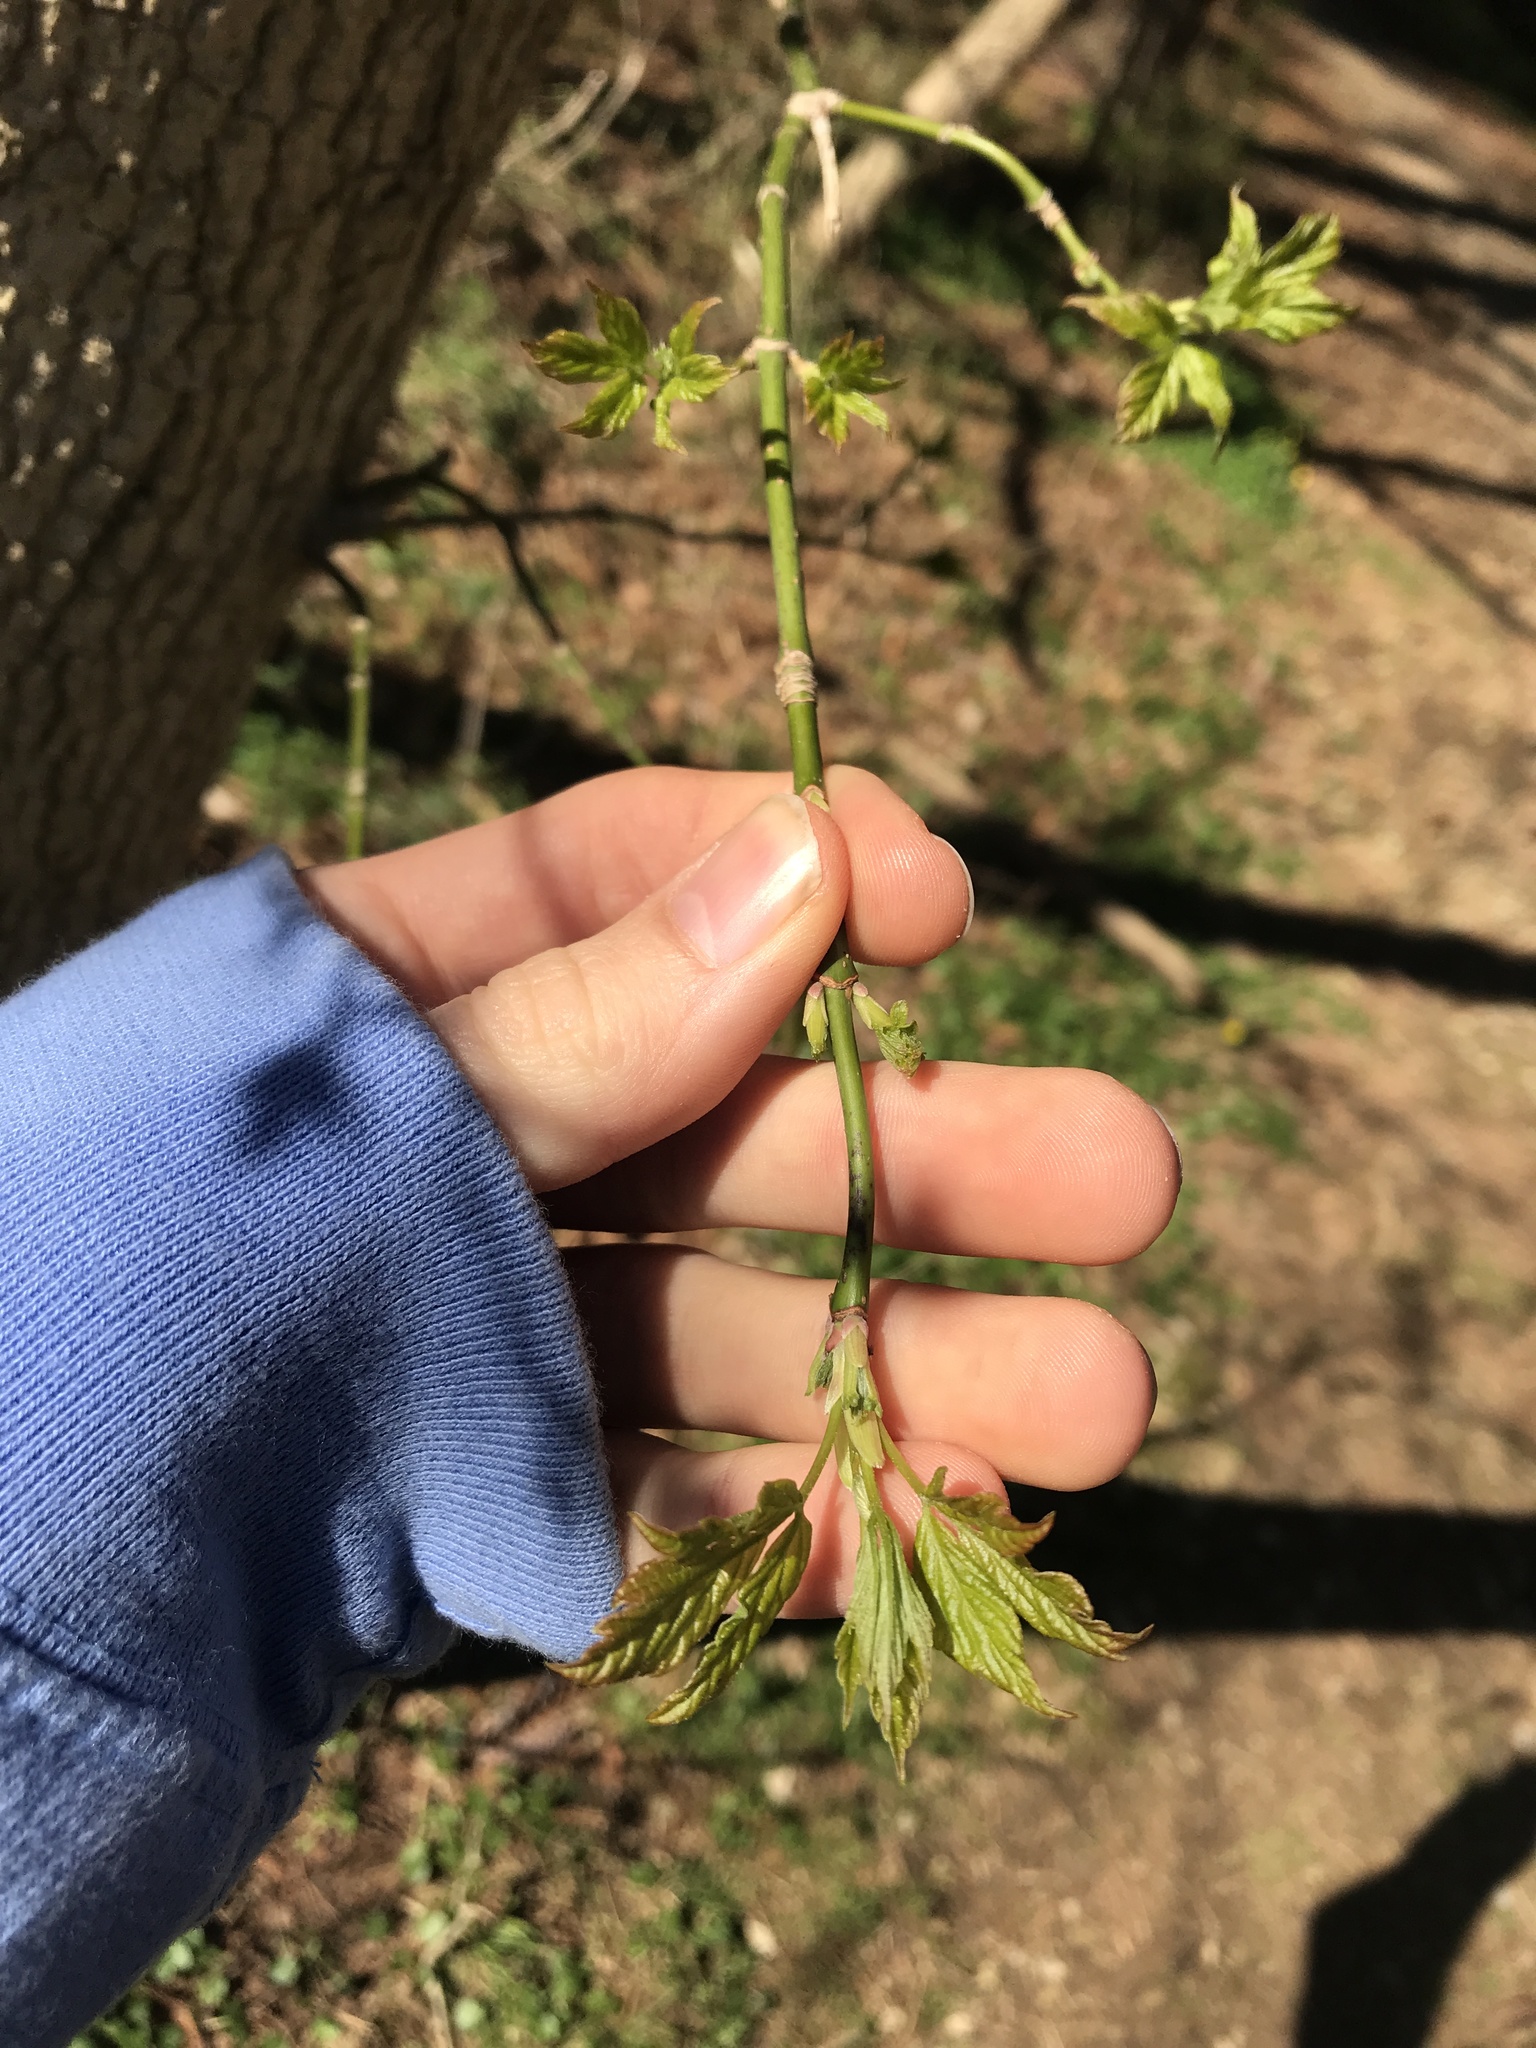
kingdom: Plantae
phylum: Tracheophyta
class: Magnoliopsida
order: Sapindales
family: Sapindaceae
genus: Acer
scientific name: Acer negundo
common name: Ashleaf maple
